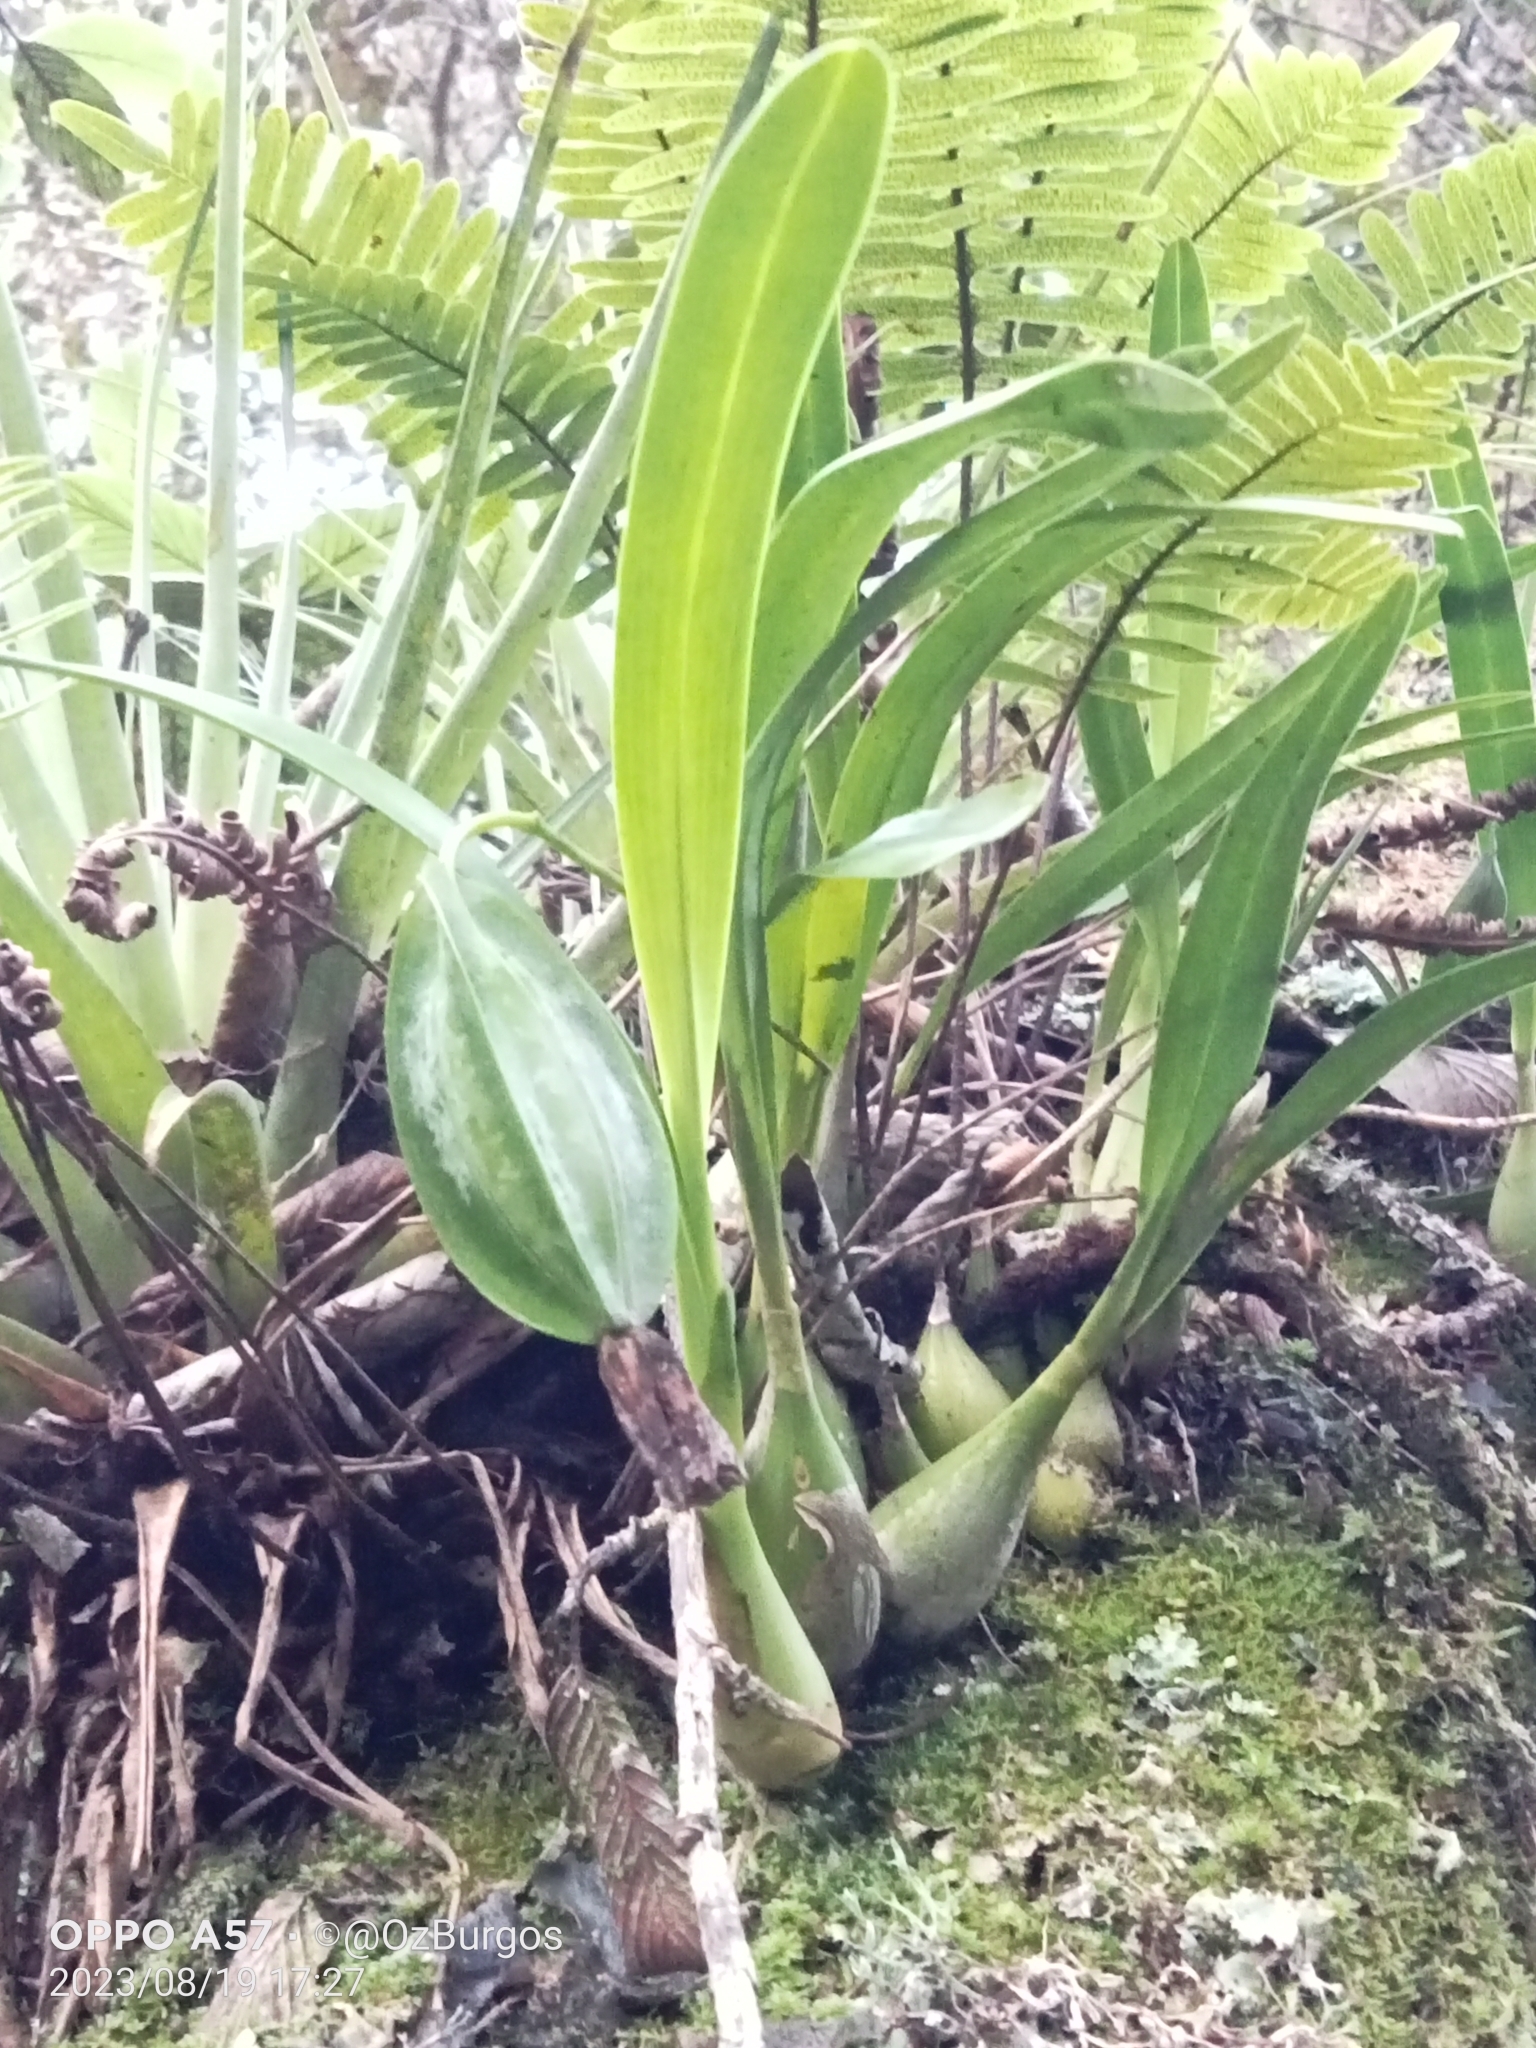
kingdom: Plantae
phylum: Tracheophyta
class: Liliopsida
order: Asparagales
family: Orchidaceae
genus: Prosthechea
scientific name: Prosthechea ochracea
